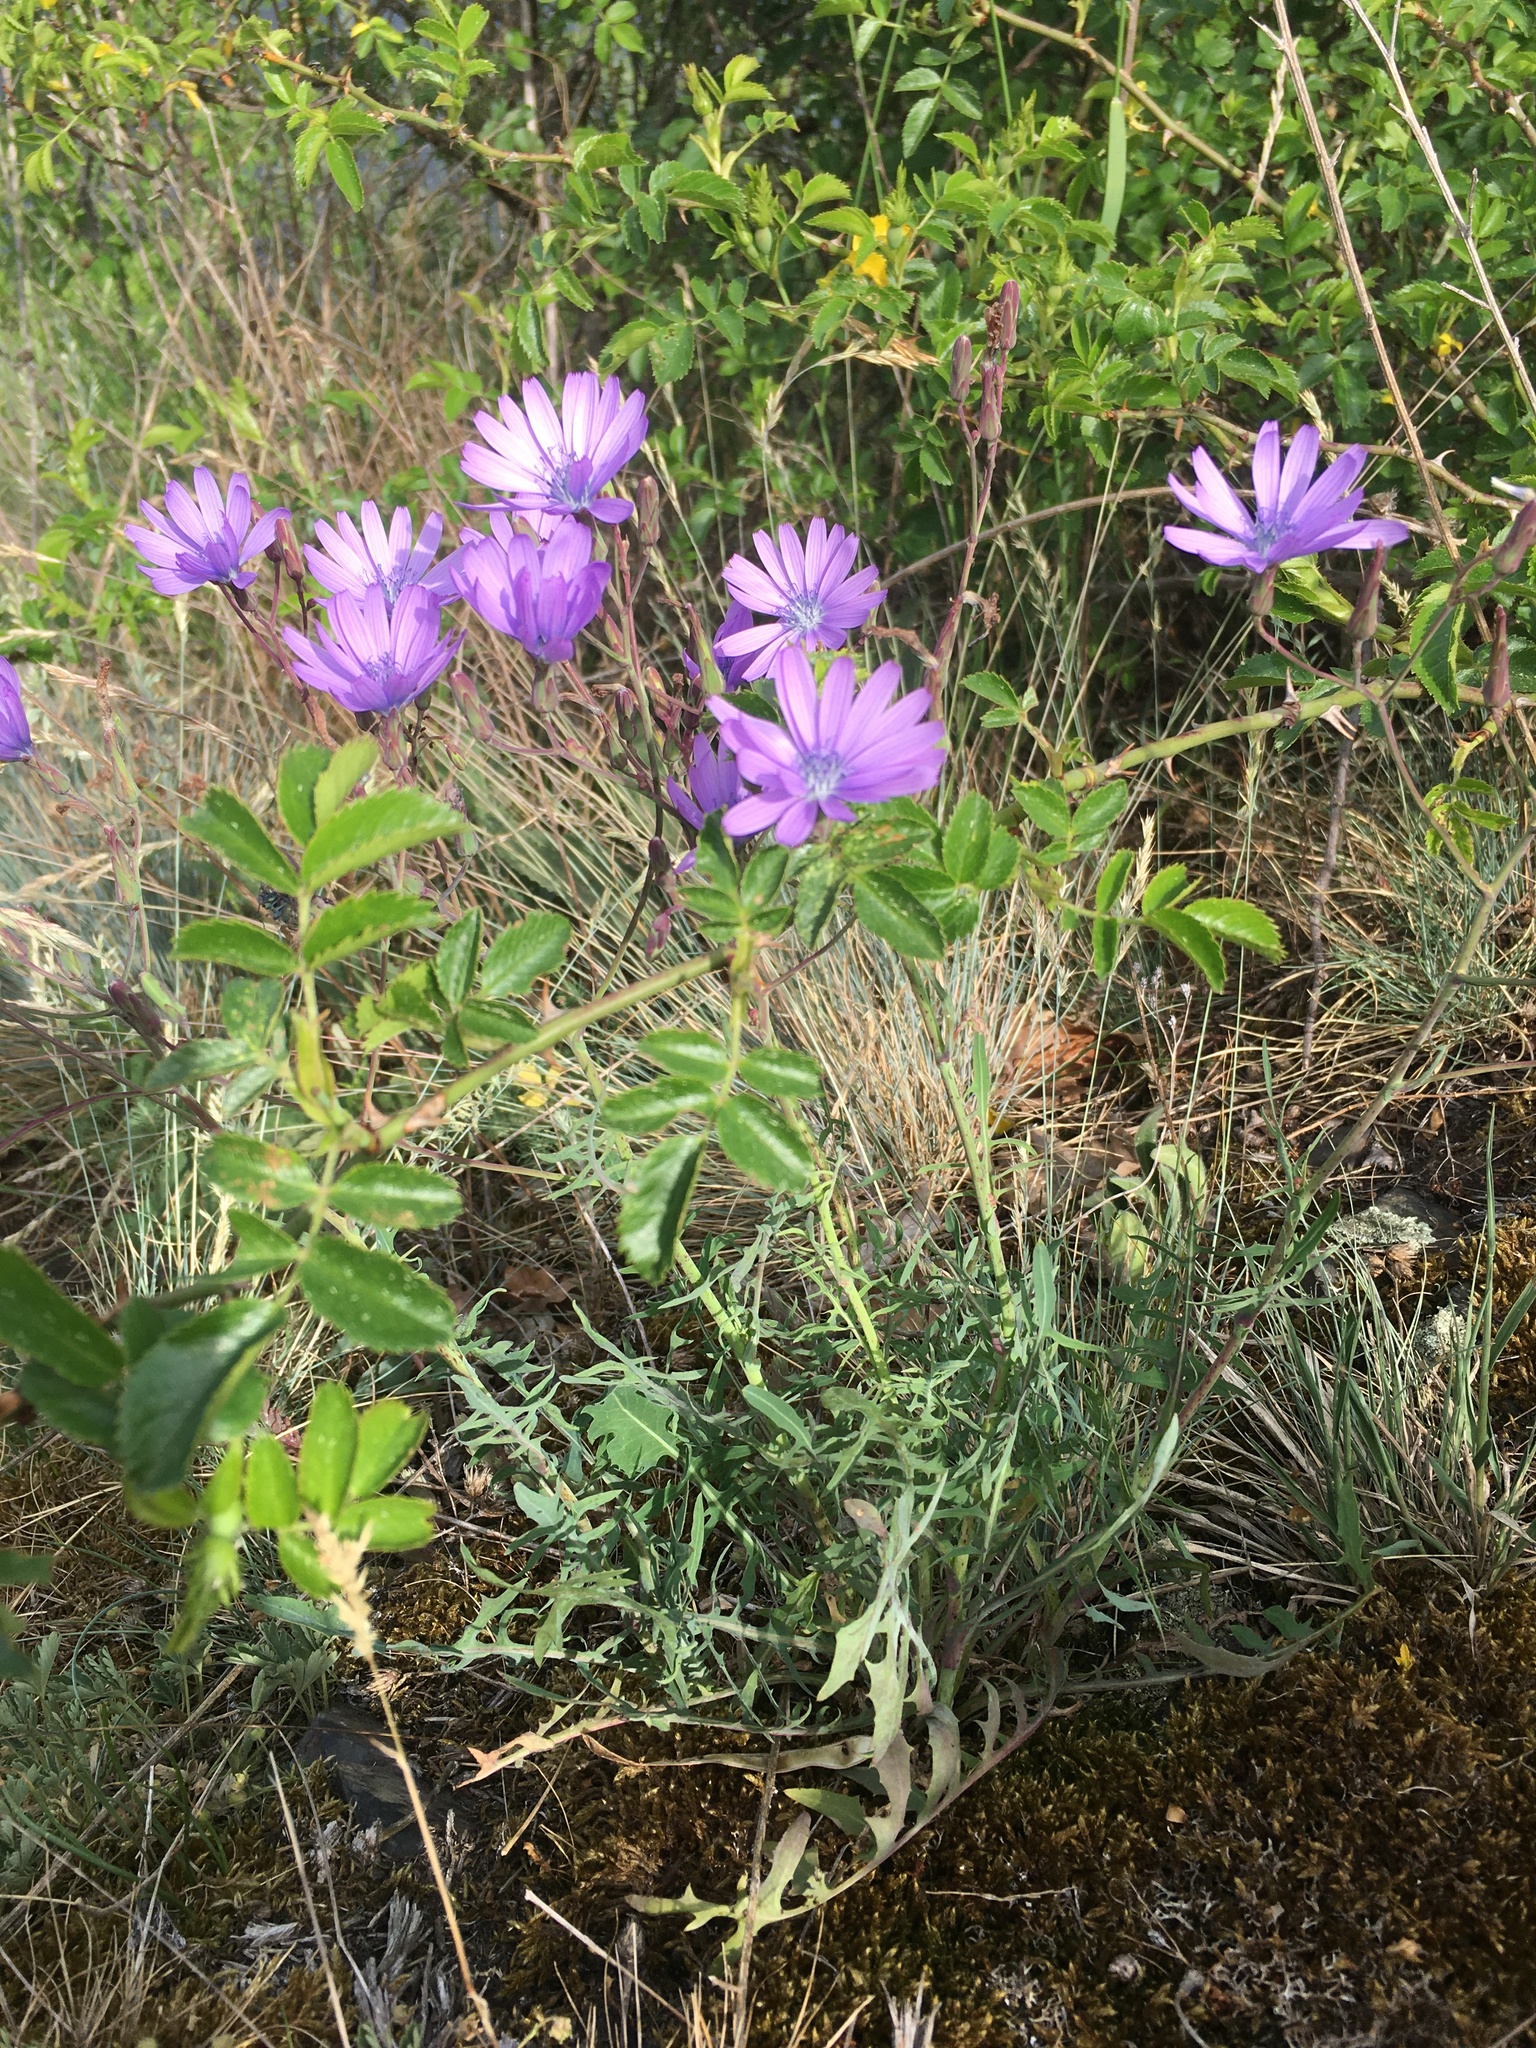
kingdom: Plantae
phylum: Tracheophyta
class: Magnoliopsida
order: Asterales
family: Asteraceae
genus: Lactuca
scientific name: Lactuca perennis
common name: Mountain lettuce
